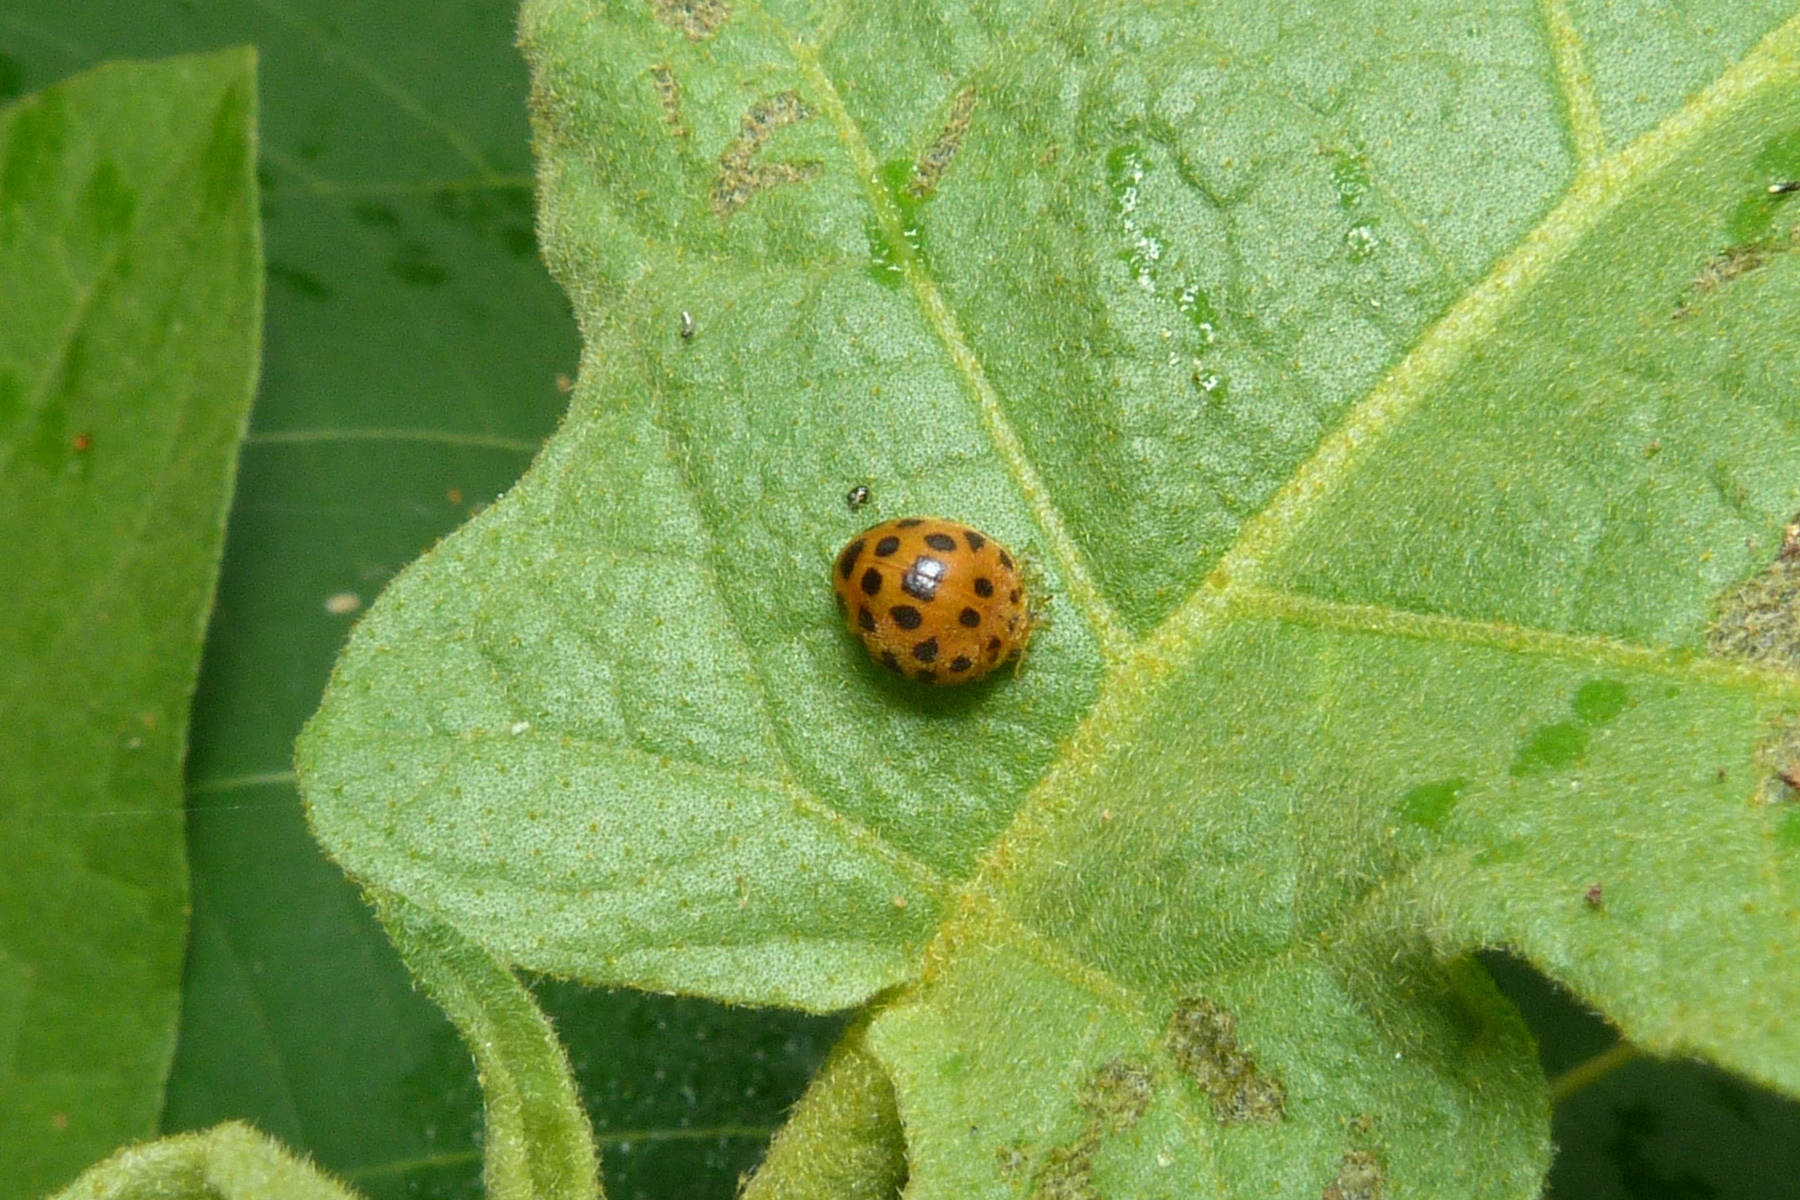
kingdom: Animalia
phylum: Arthropoda
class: Insecta
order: Coleoptera
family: Coccinellidae
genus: Henosepilachna
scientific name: Henosepilachna vigintioctopunctata
